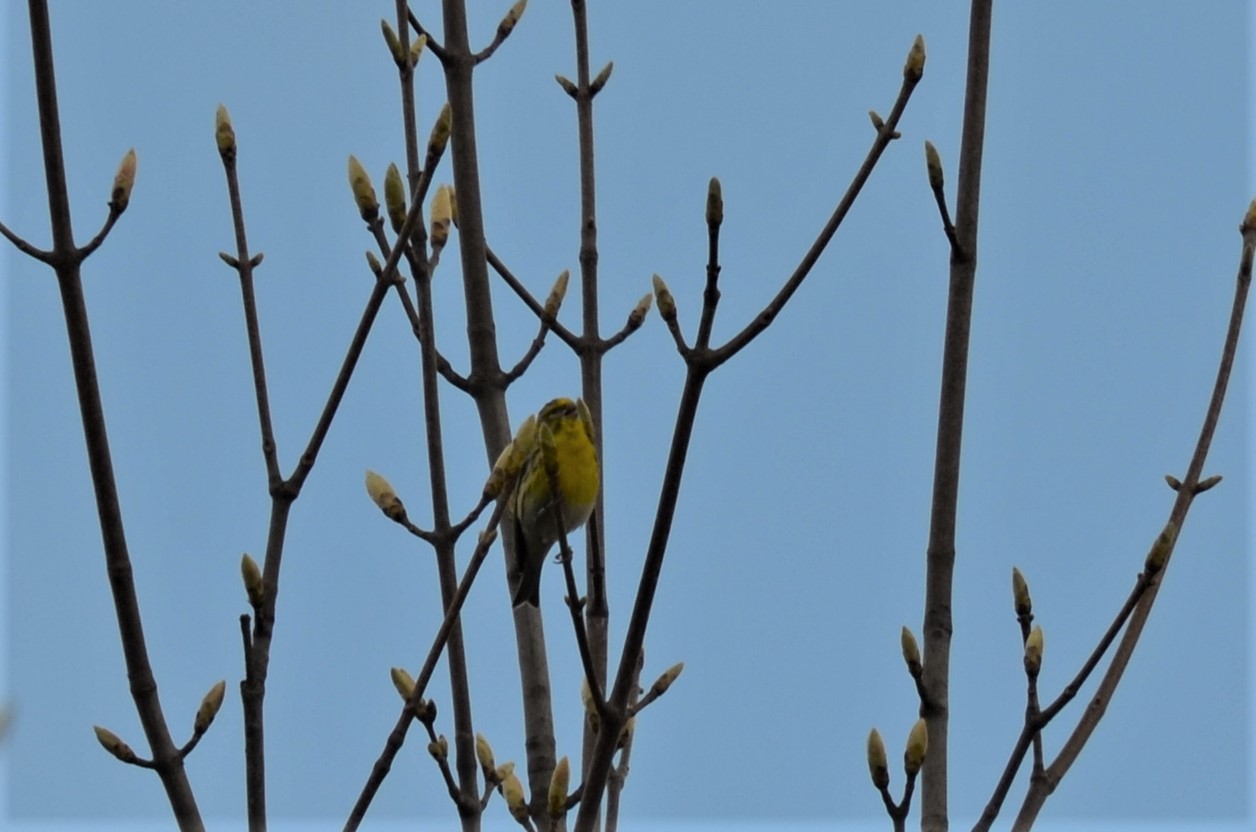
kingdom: Animalia
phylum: Chordata
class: Aves
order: Passeriformes
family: Fringillidae
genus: Serinus
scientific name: Serinus serinus
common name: European serin
